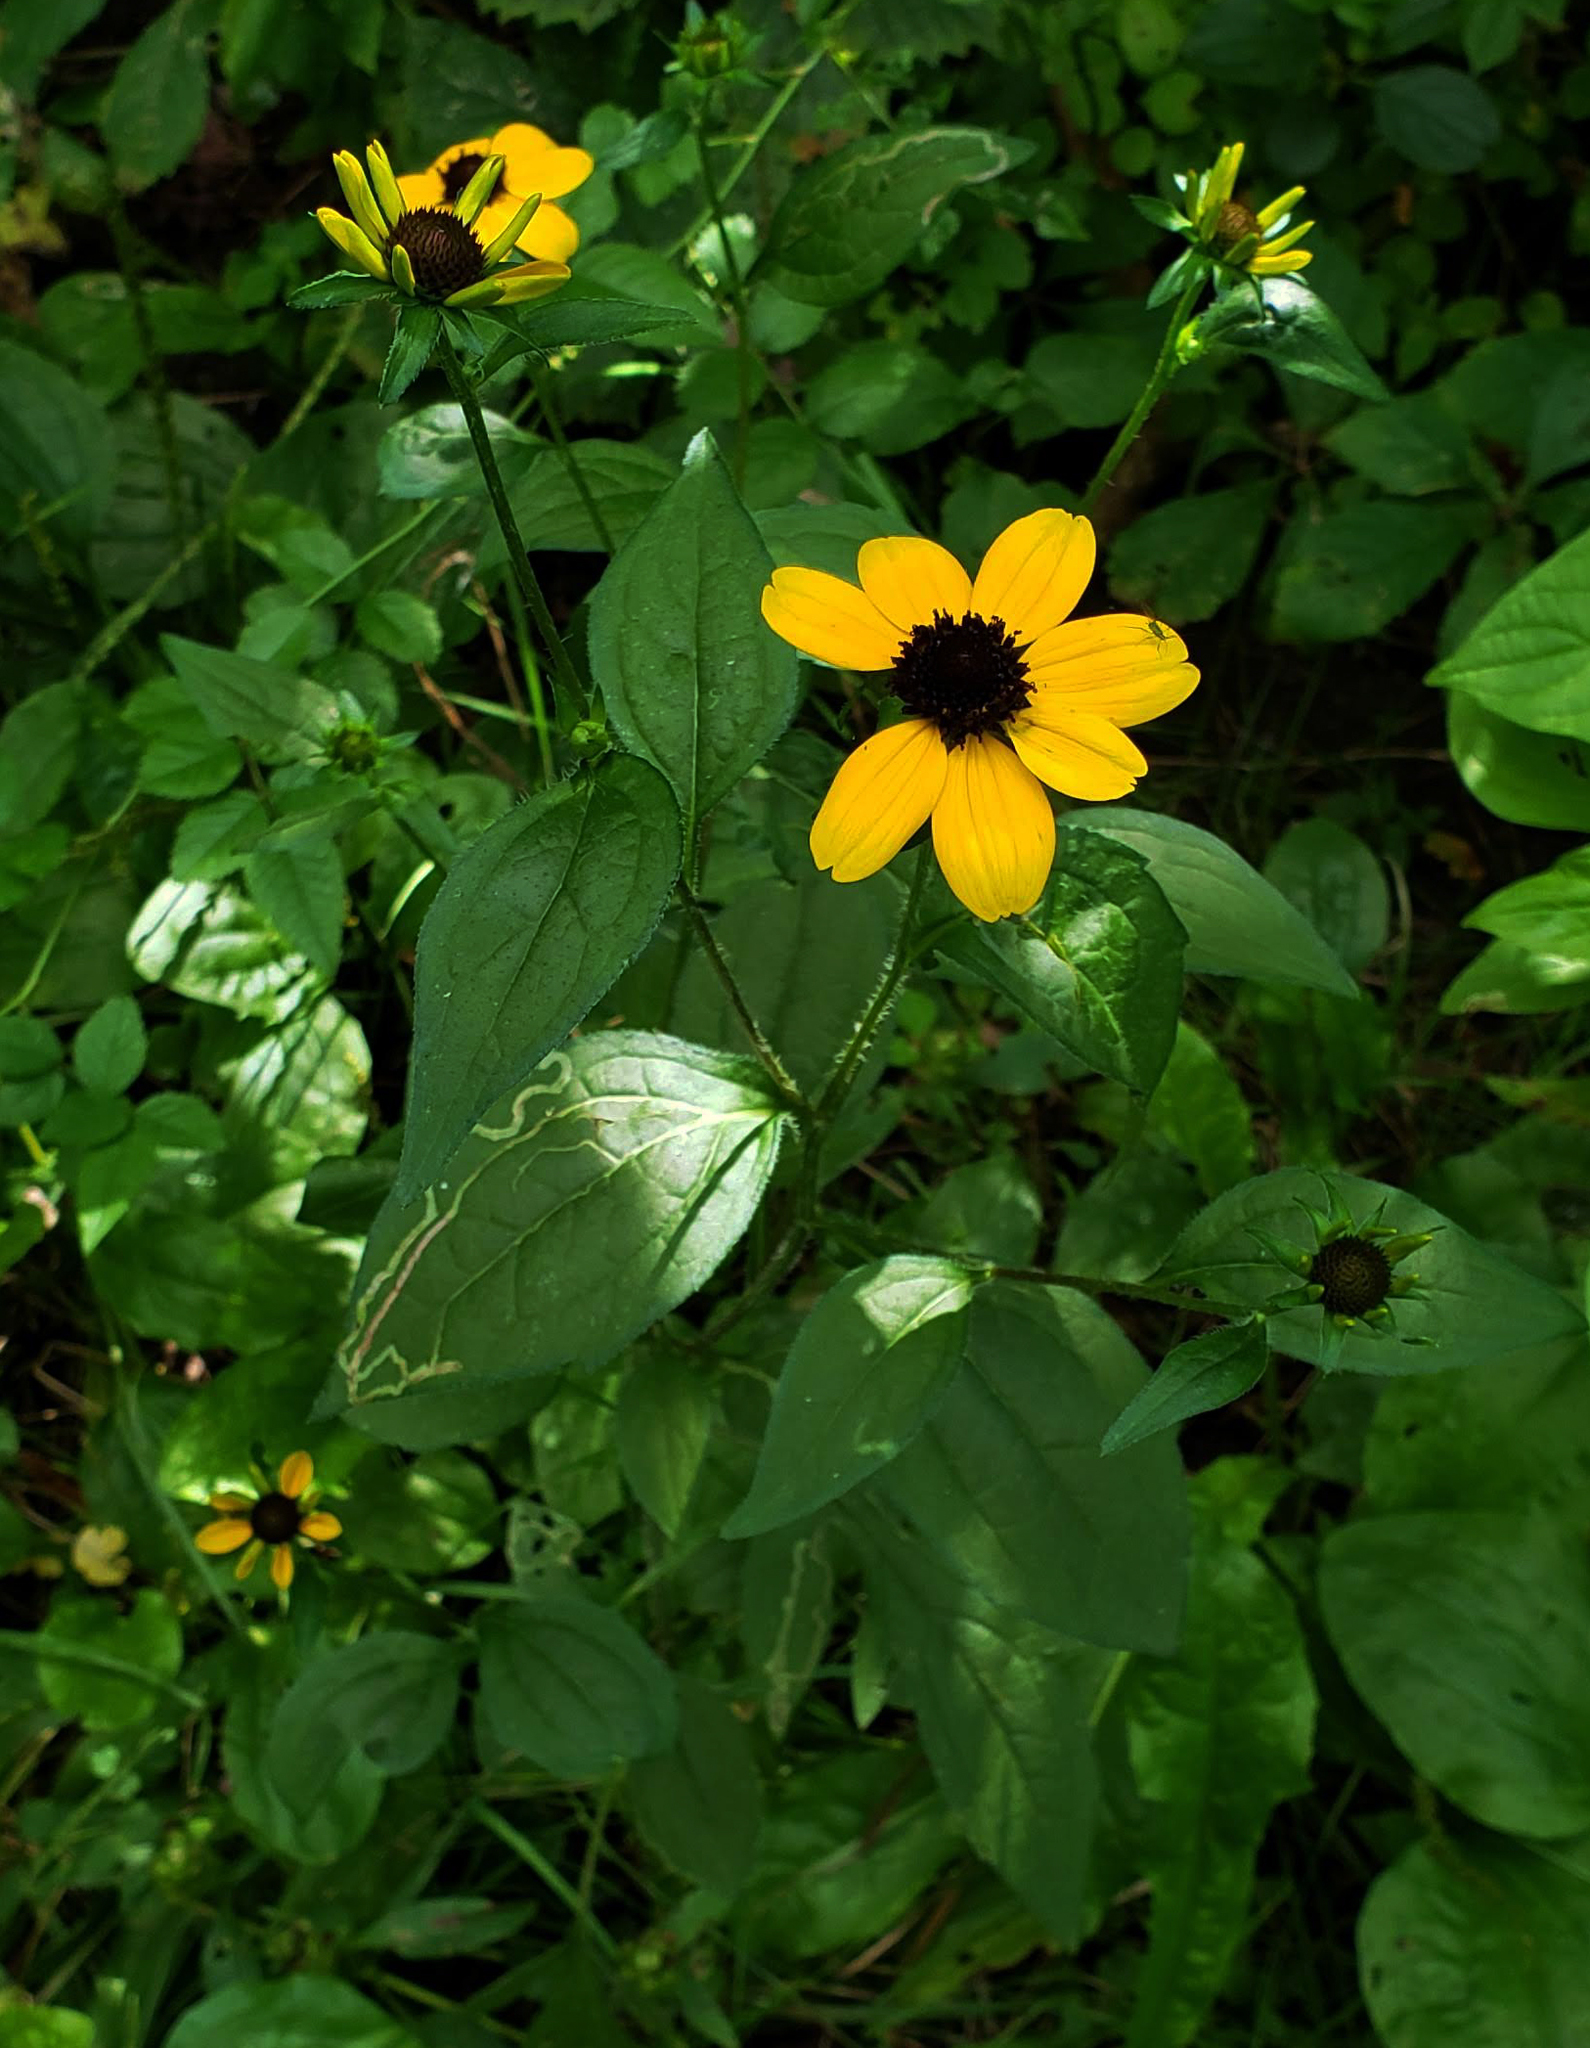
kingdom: Plantae
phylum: Tracheophyta
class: Magnoliopsida
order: Asterales
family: Asteraceae
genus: Rudbeckia
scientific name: Rudbeckia triloba
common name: Thin-leaved coneflower
